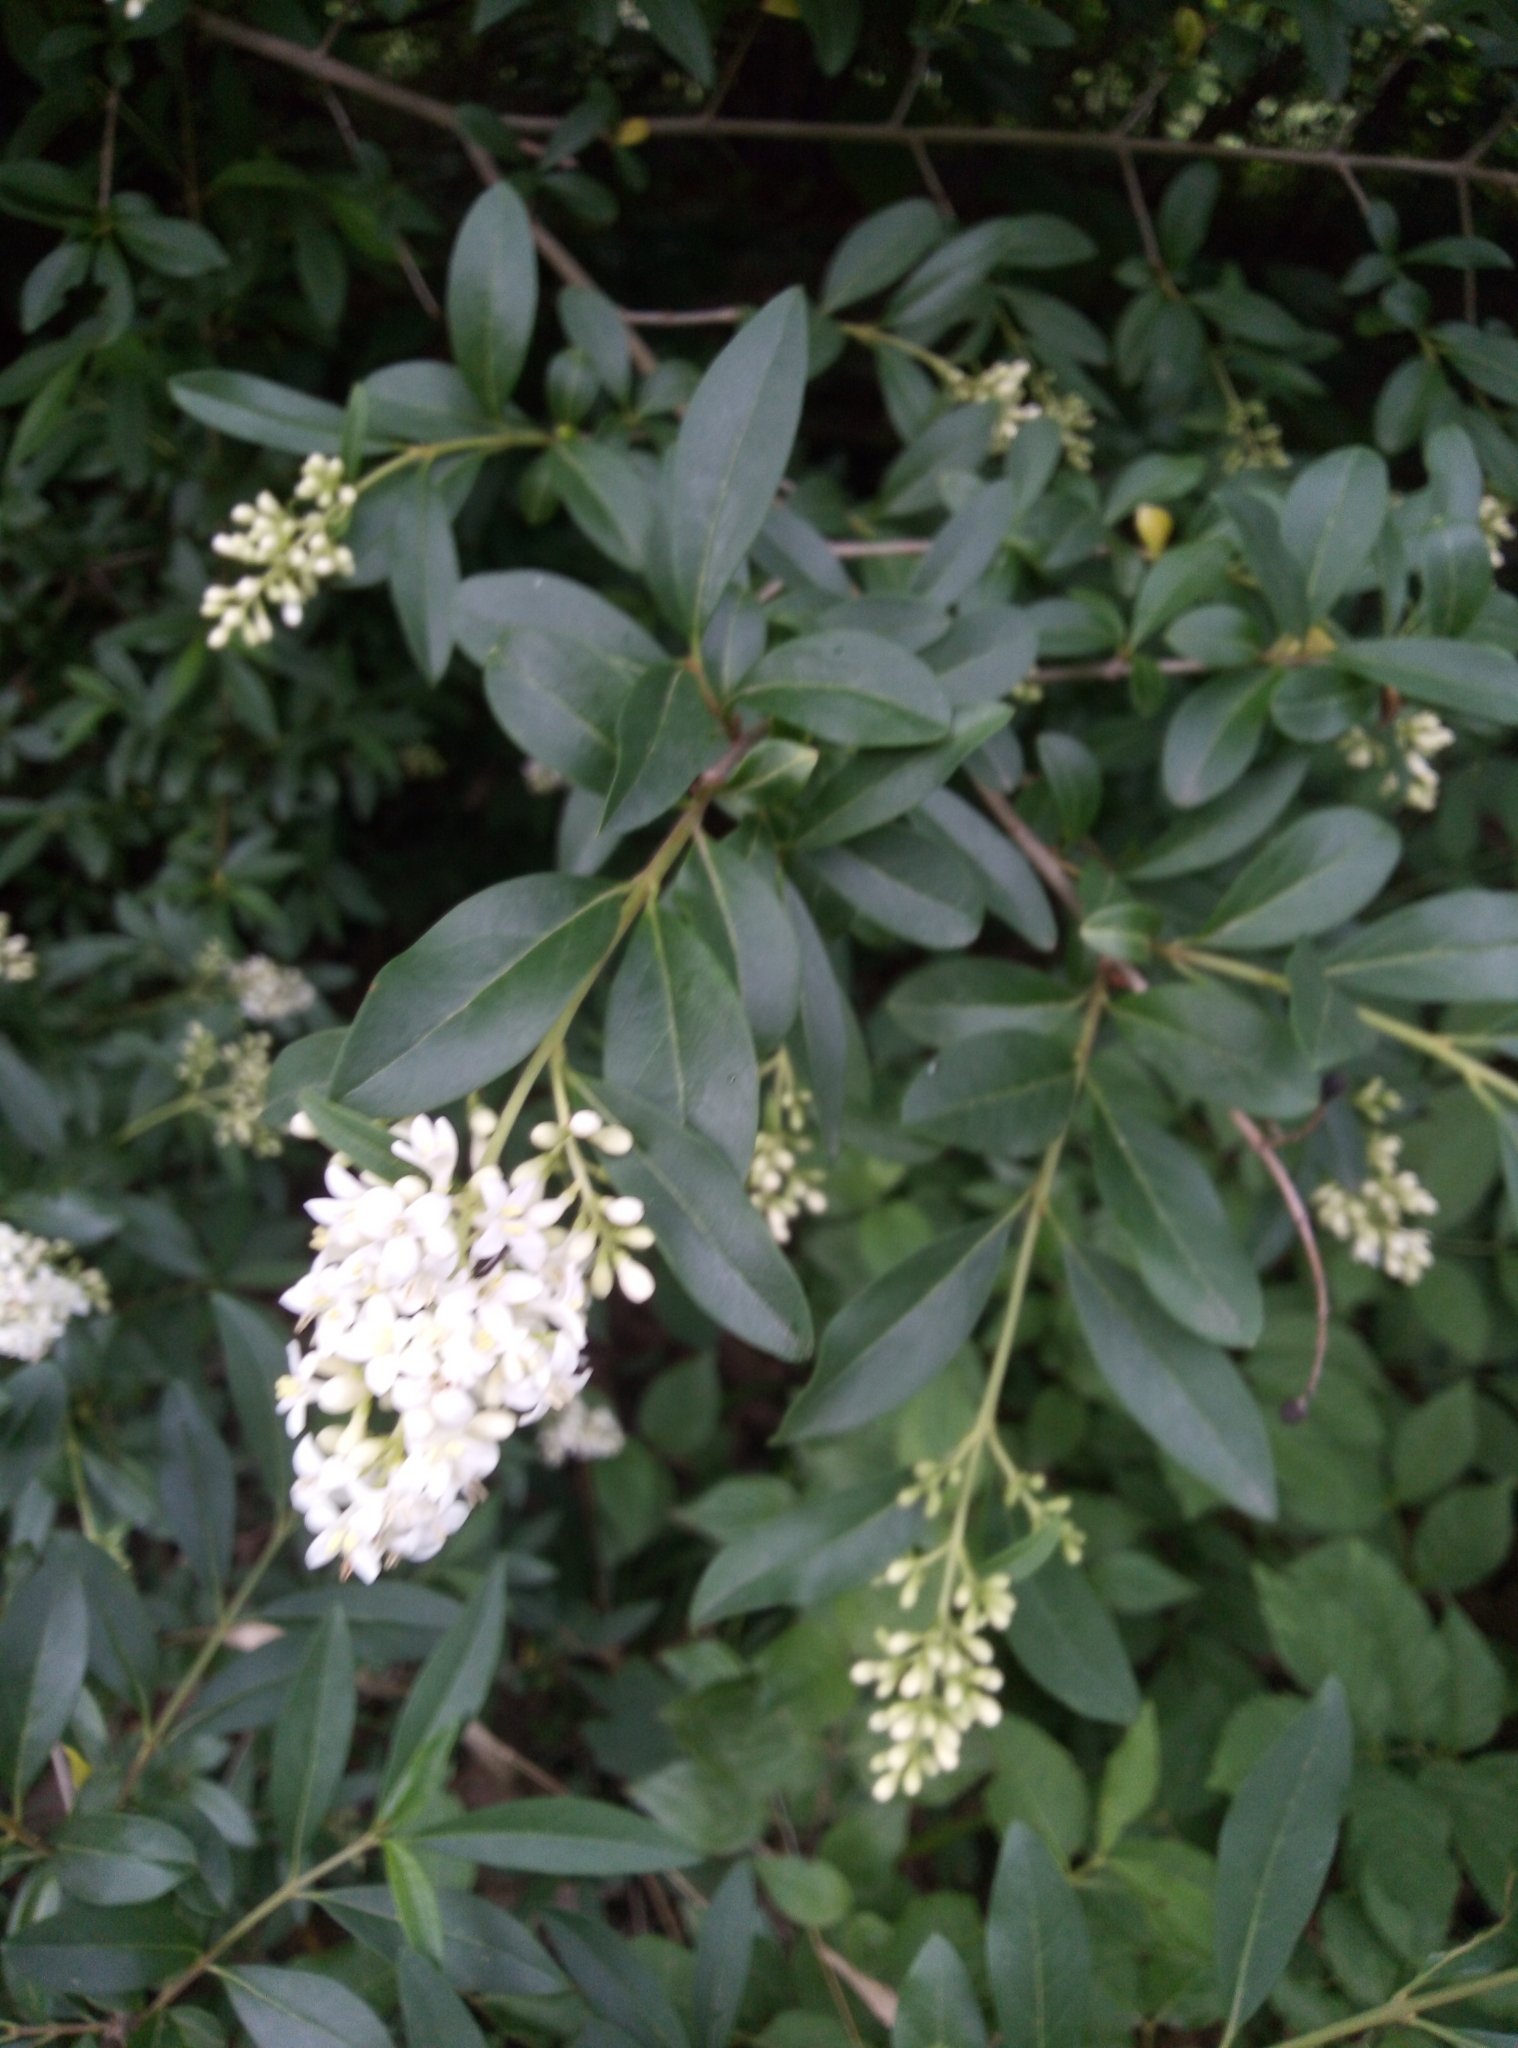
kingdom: Plantae
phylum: Tracheophyta
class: Magnoliopsida
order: Lamiales
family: Oleaceae
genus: Ligustrum
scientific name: Ligustrum vulgare
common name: Wild privet
